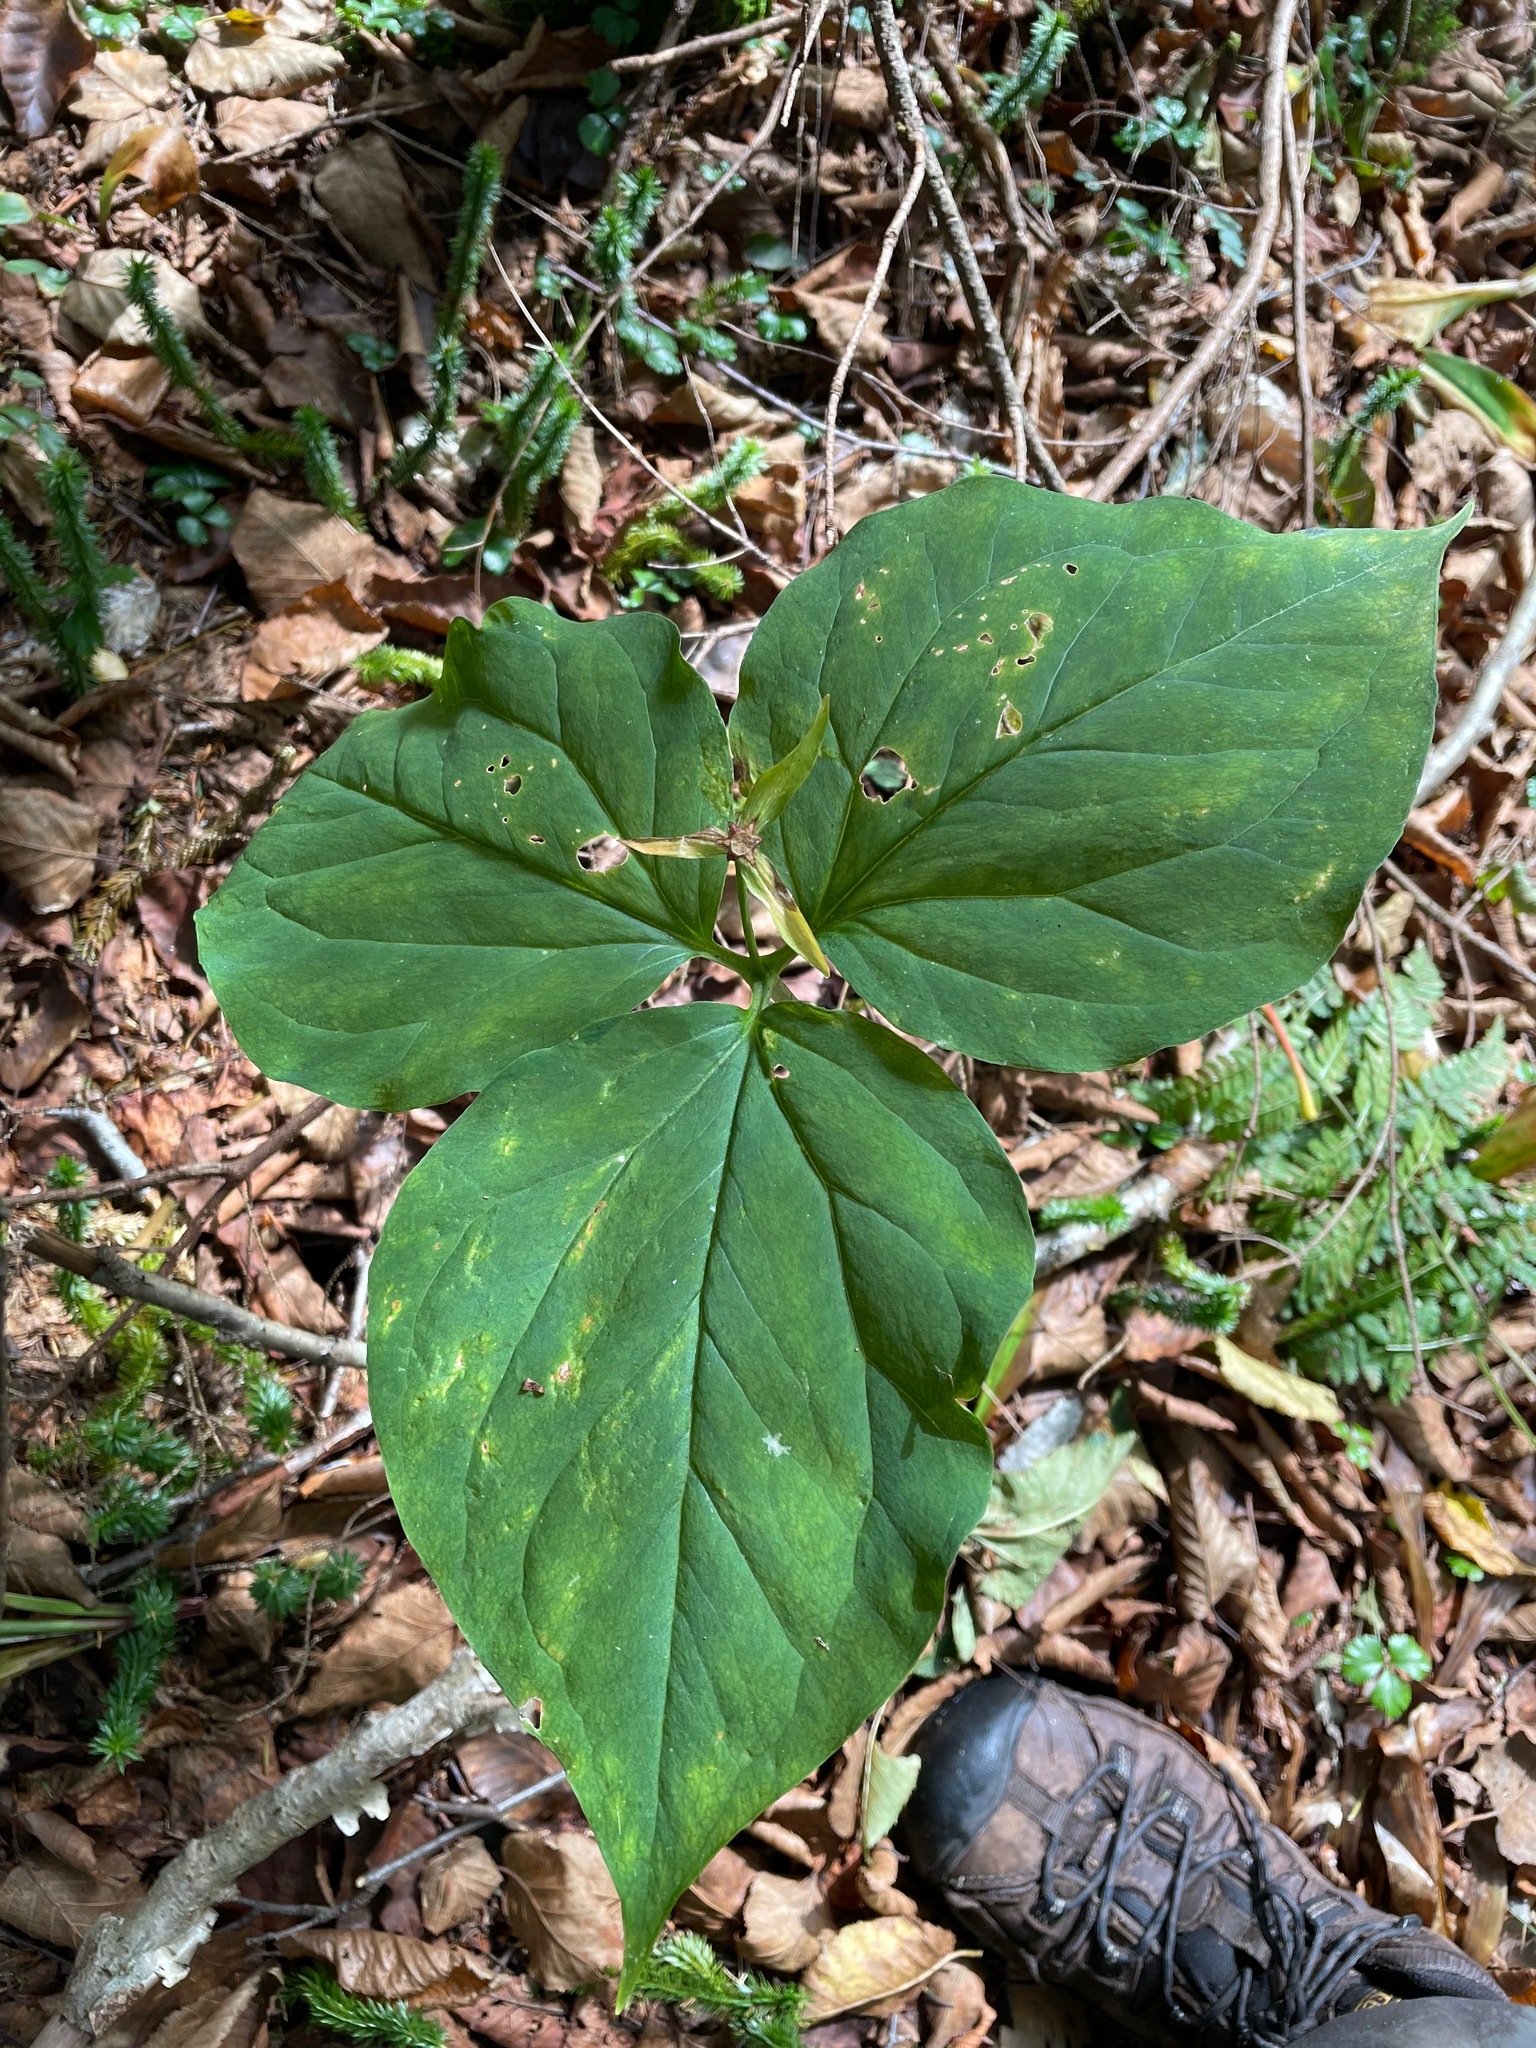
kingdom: Plantae
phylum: Tracheophyta
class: Liliopsida
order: Liliales
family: Melanthiaceae
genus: Trillium
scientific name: Trillium undulatum
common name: Paint trillium
